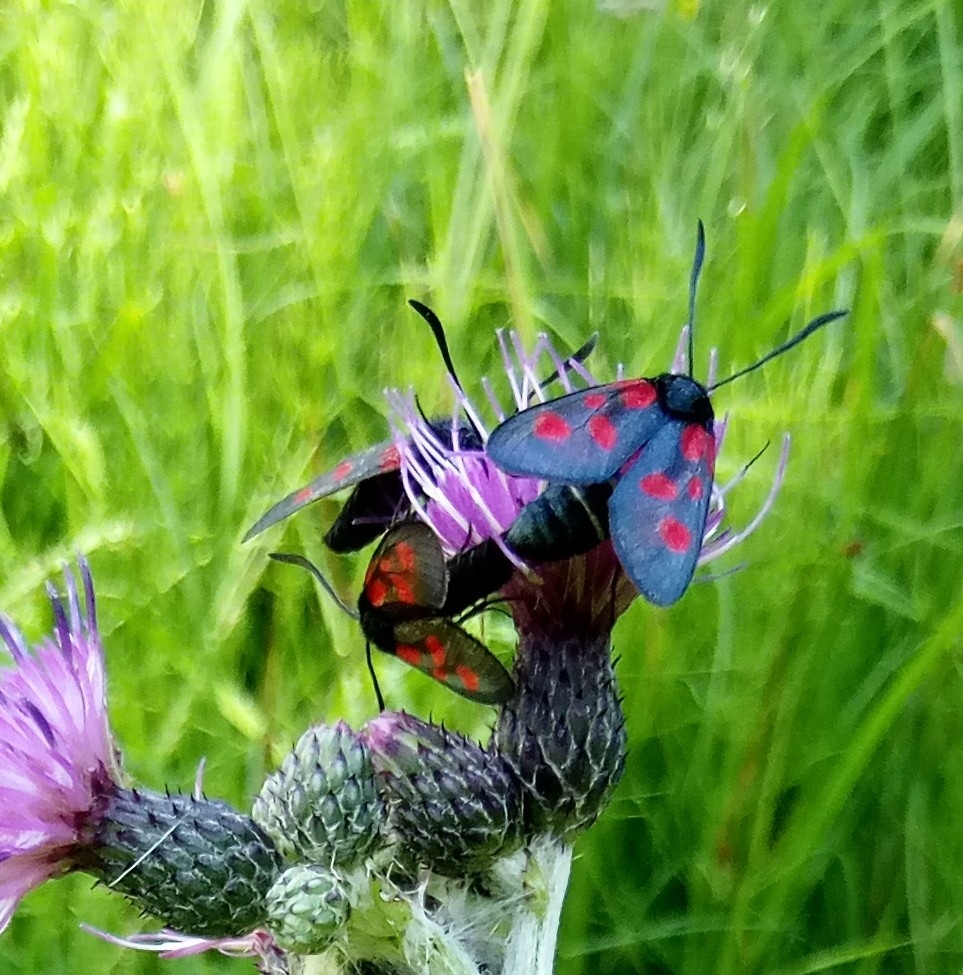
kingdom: Animalia
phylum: Arthropoda
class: Insecta
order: Lepidoptera
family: Zygaenidae
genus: Zygaena
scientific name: Zygaena viciae
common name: New forest burnet
